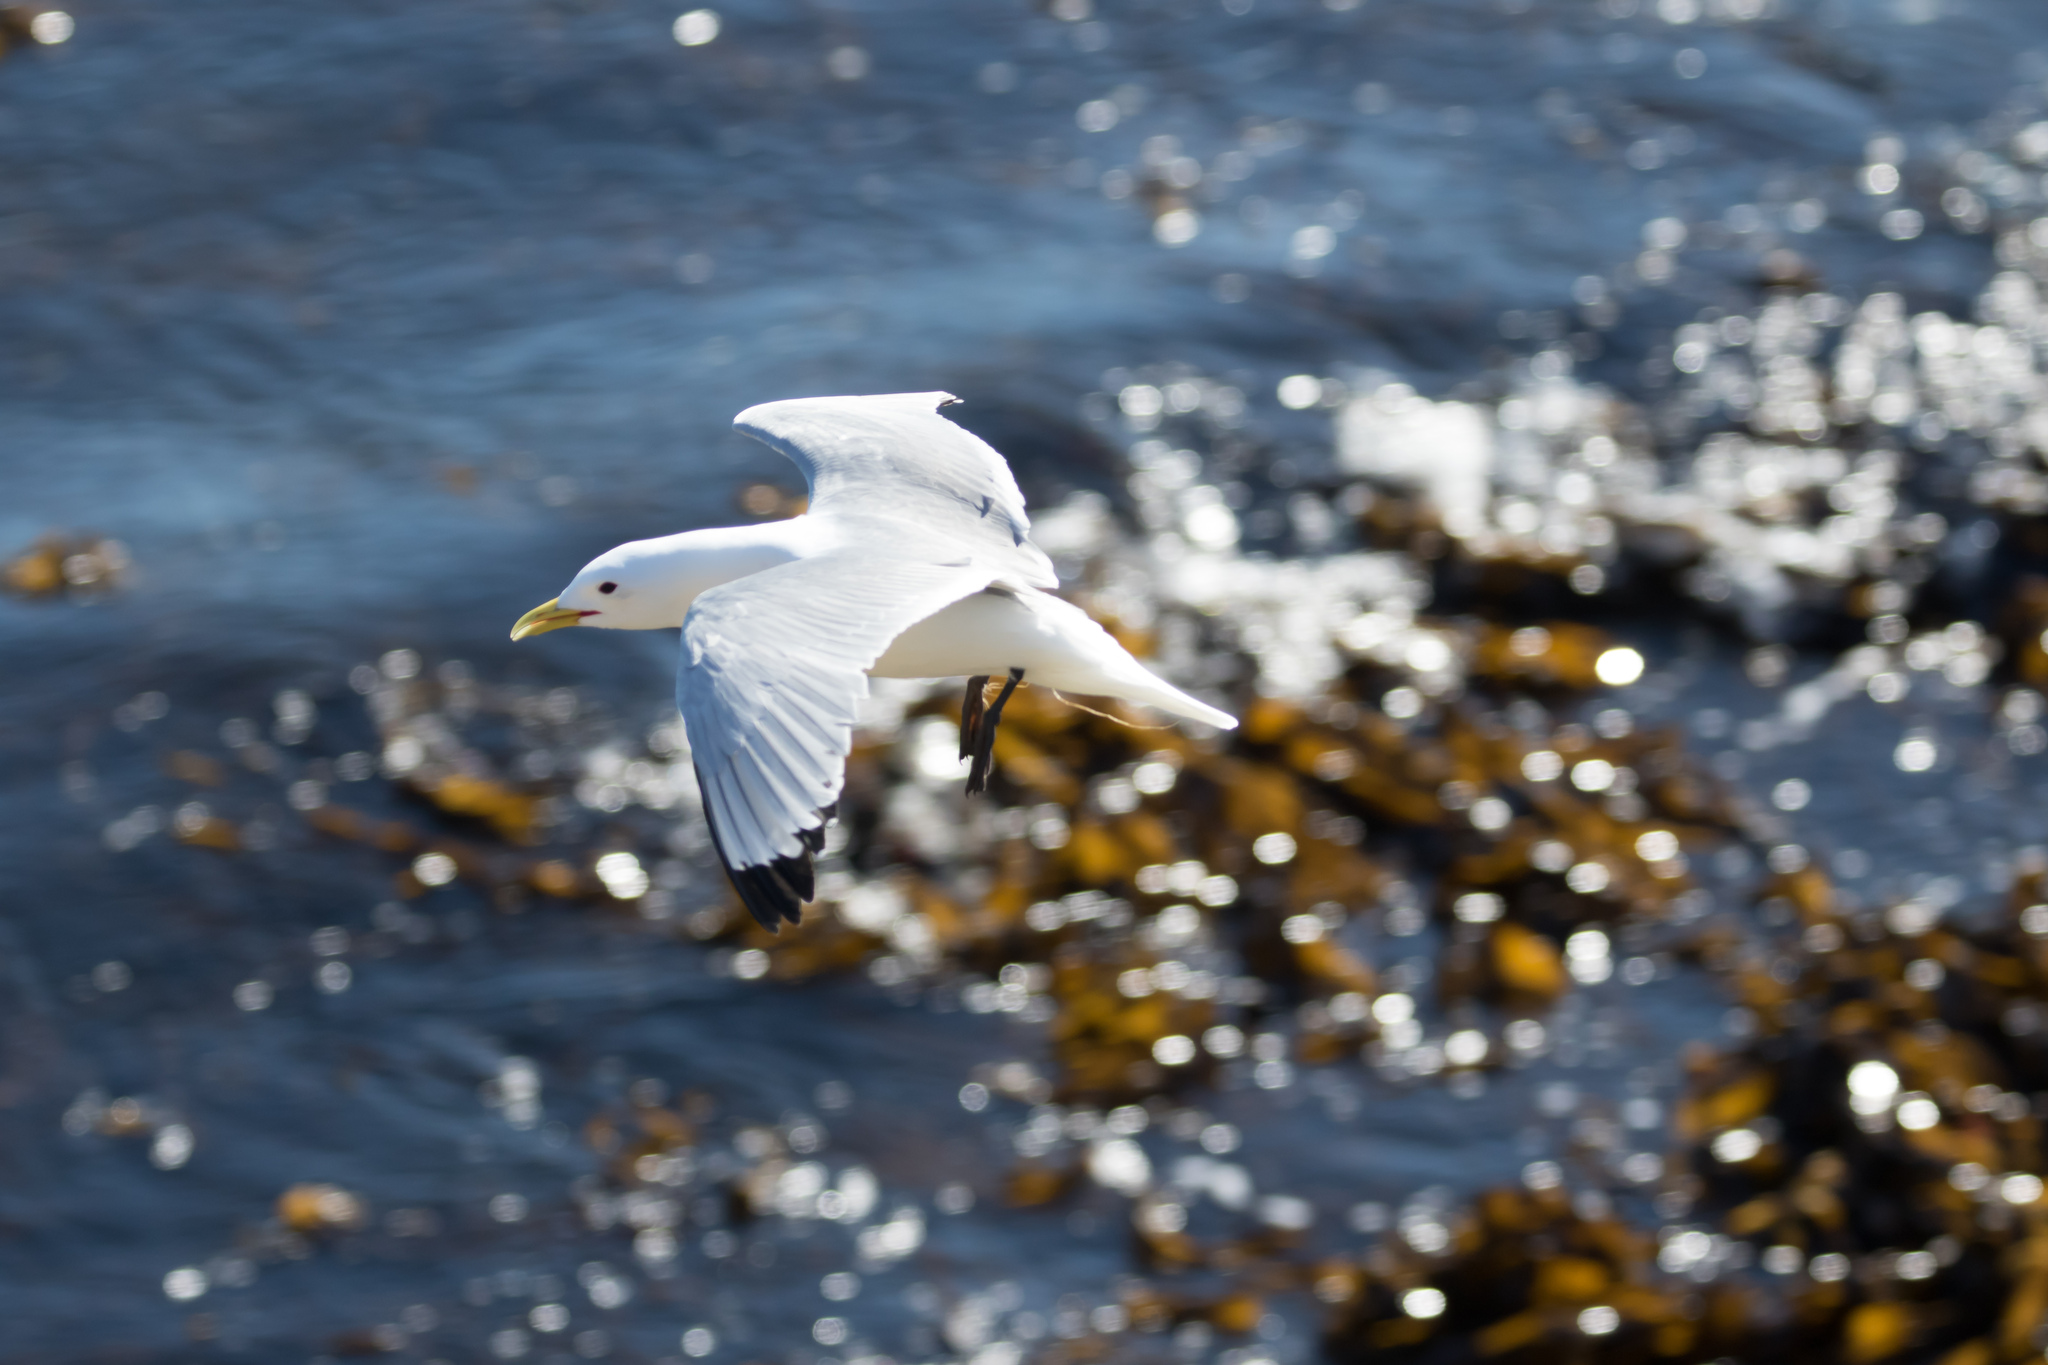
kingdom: Animalia
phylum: Chordata
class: Aves
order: Charadriiformes
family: Laridae
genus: Rissa
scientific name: Rissa tridactyla
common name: Black-legged kittiwake
